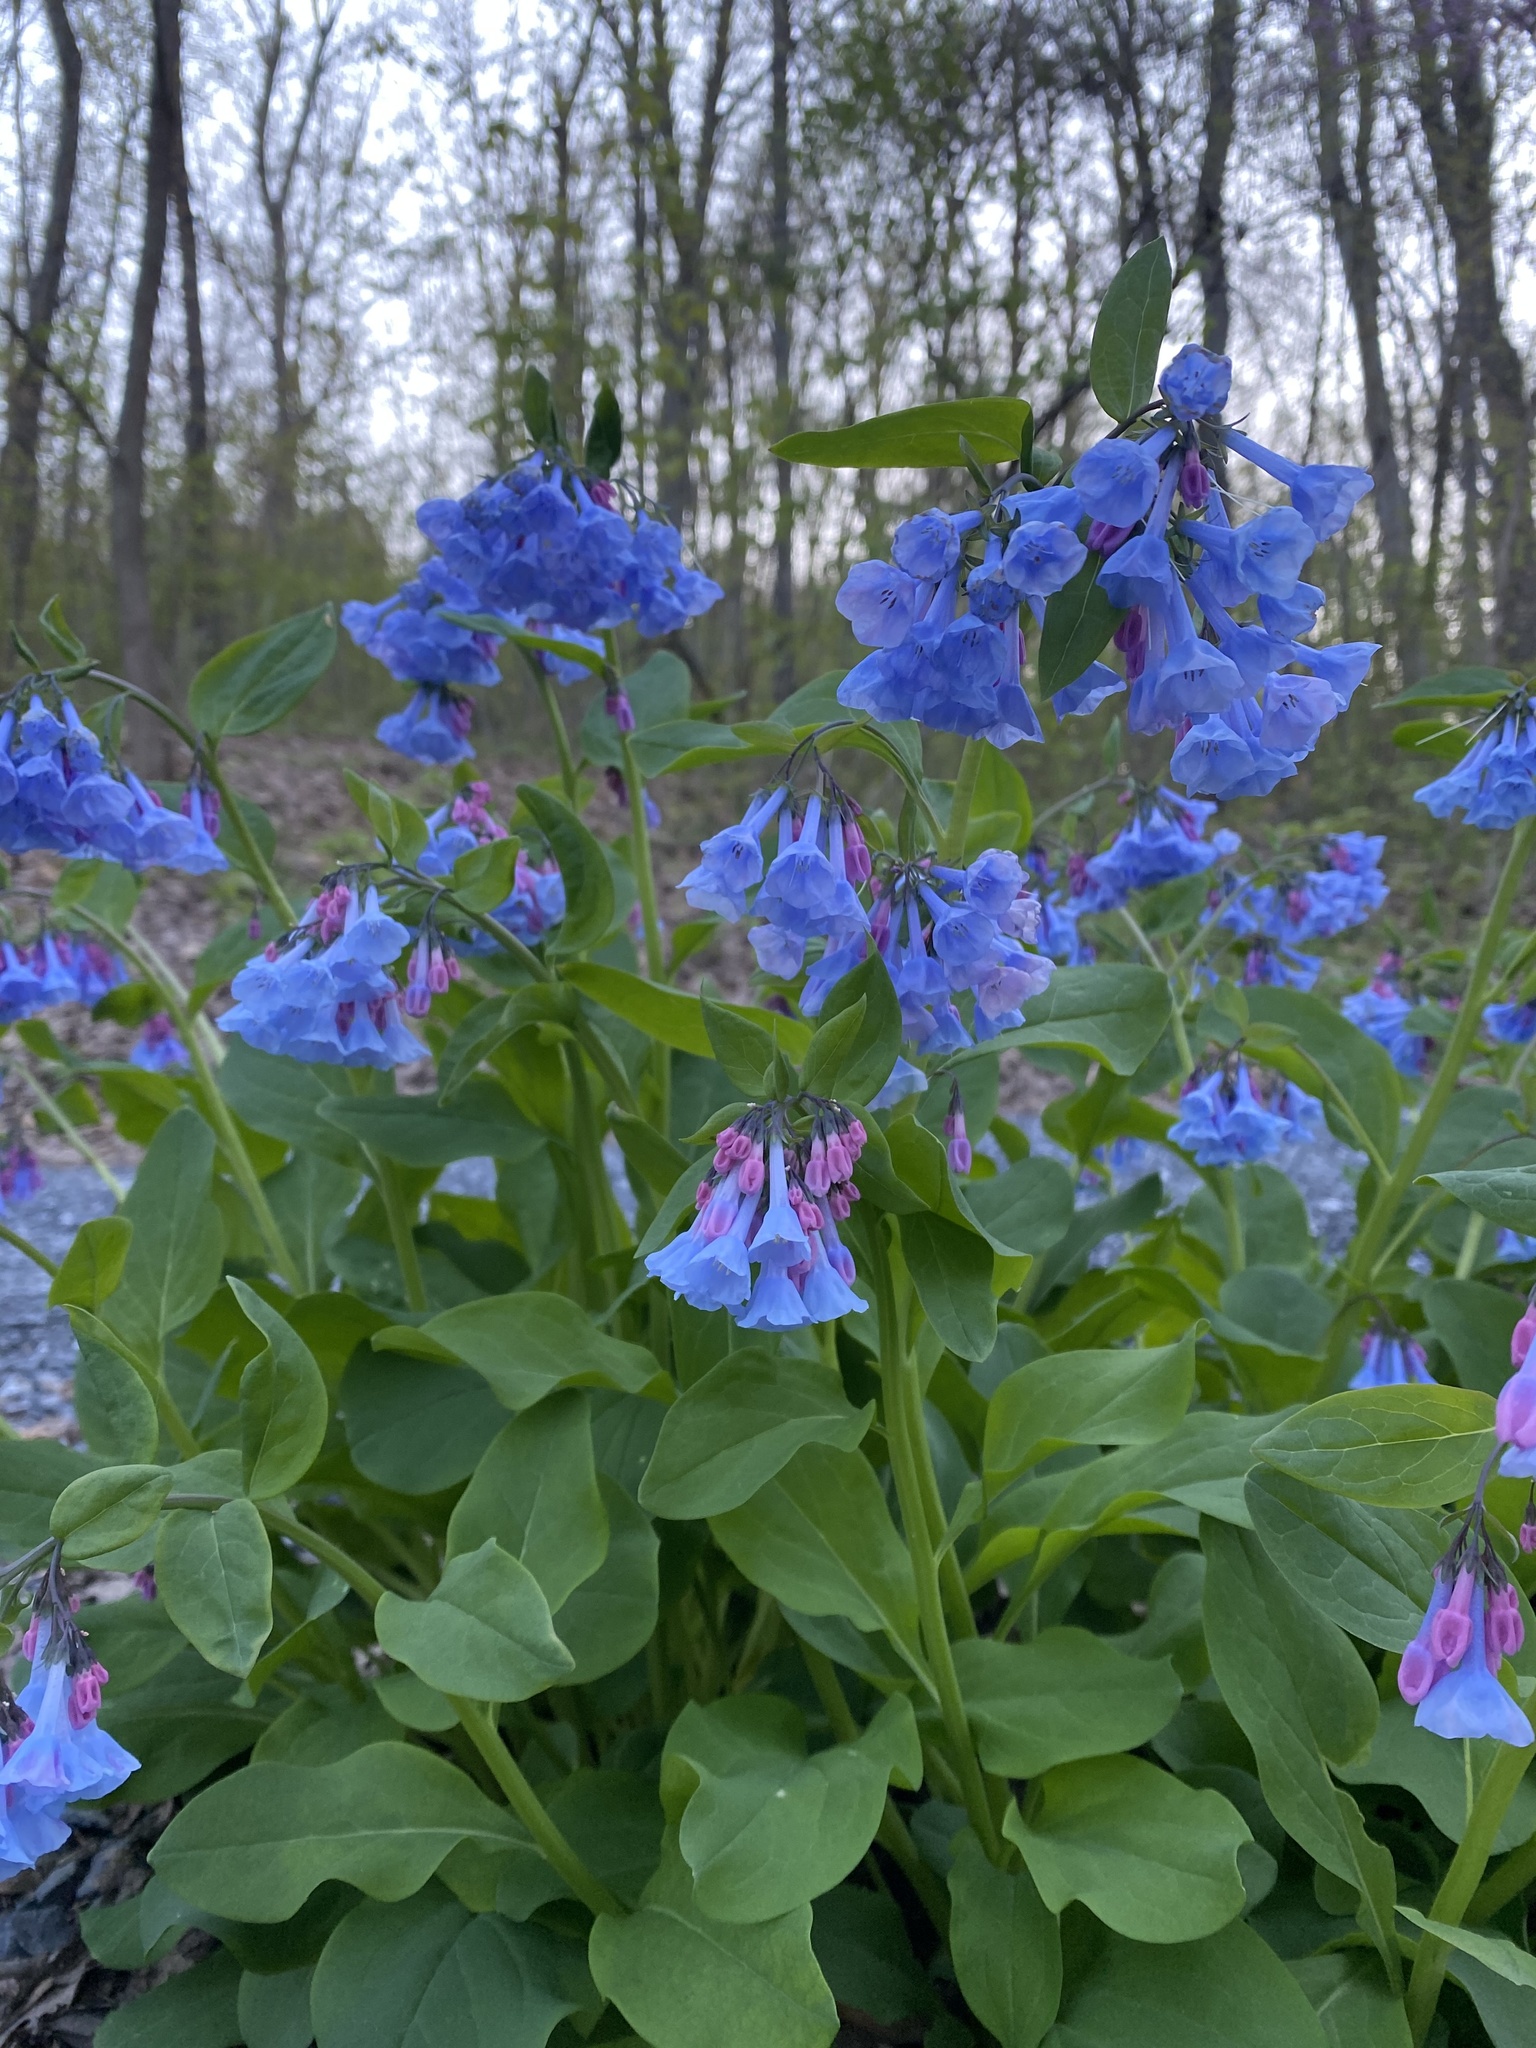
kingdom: Plantae
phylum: Tracheophyta
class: Magnoliopsida
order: Boraginales
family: Boraginaceae
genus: Mertensia
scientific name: Mertensia virginica
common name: Virginia bluebells
